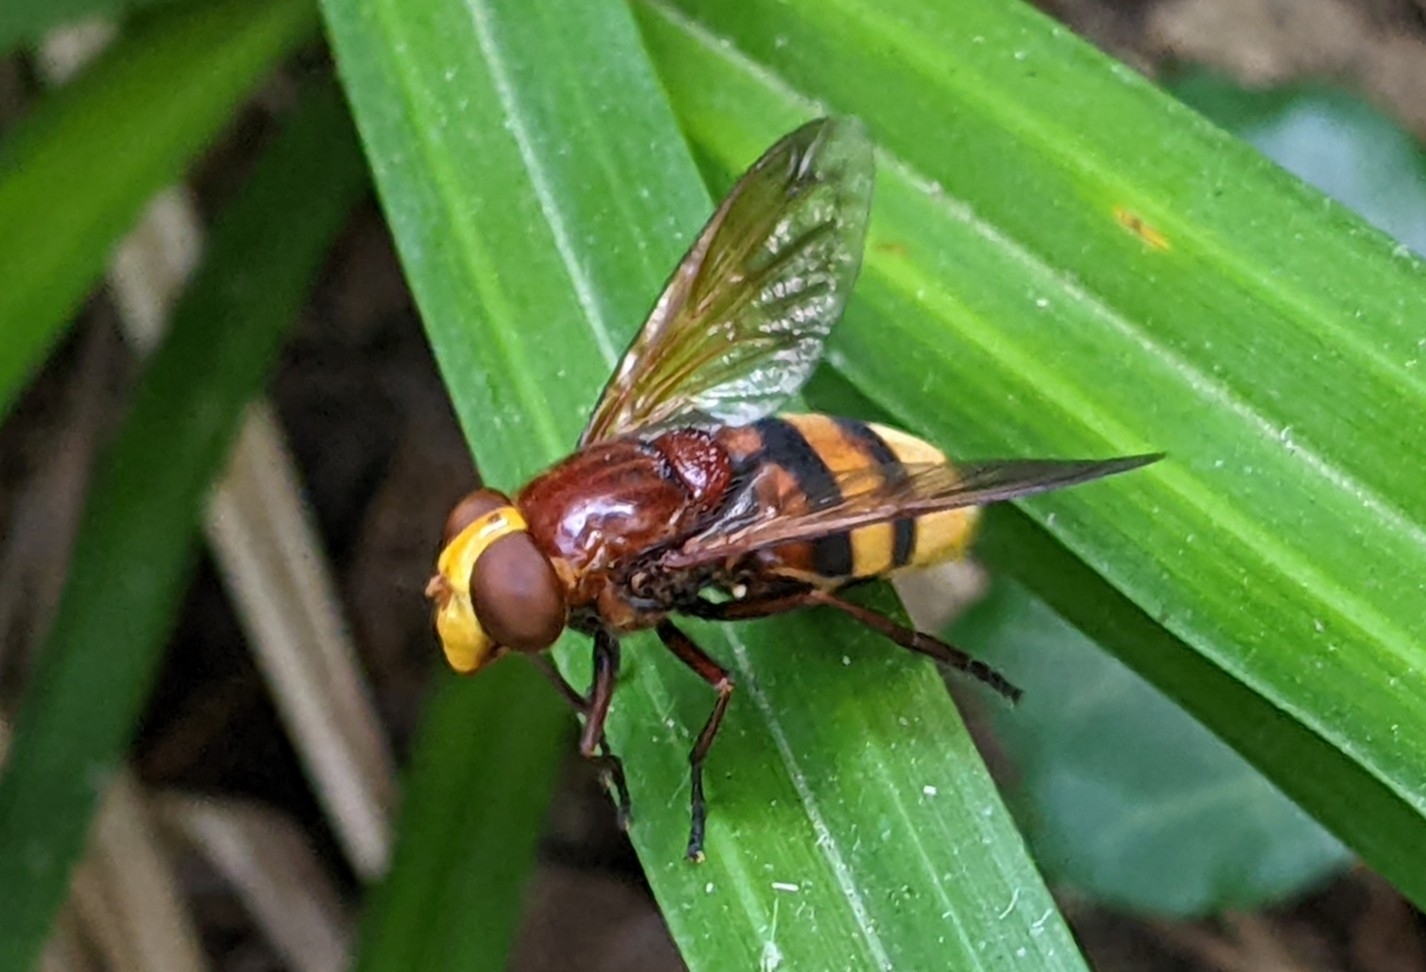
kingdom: Animalia
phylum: Arthropoda
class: Insecta
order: Diptera
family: Syrphidae
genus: Volucella
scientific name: Volucella zonaria
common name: Hornet hoverfly
